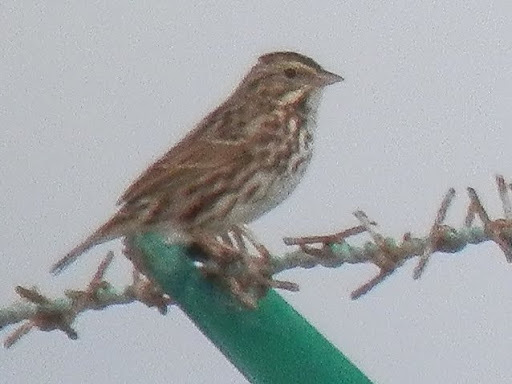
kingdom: Animalia
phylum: Chordata
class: Aves
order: Passeriformes
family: Passerellidae
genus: Passerculus
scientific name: Passerculus sandwichensis
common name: Savannah sparrow
